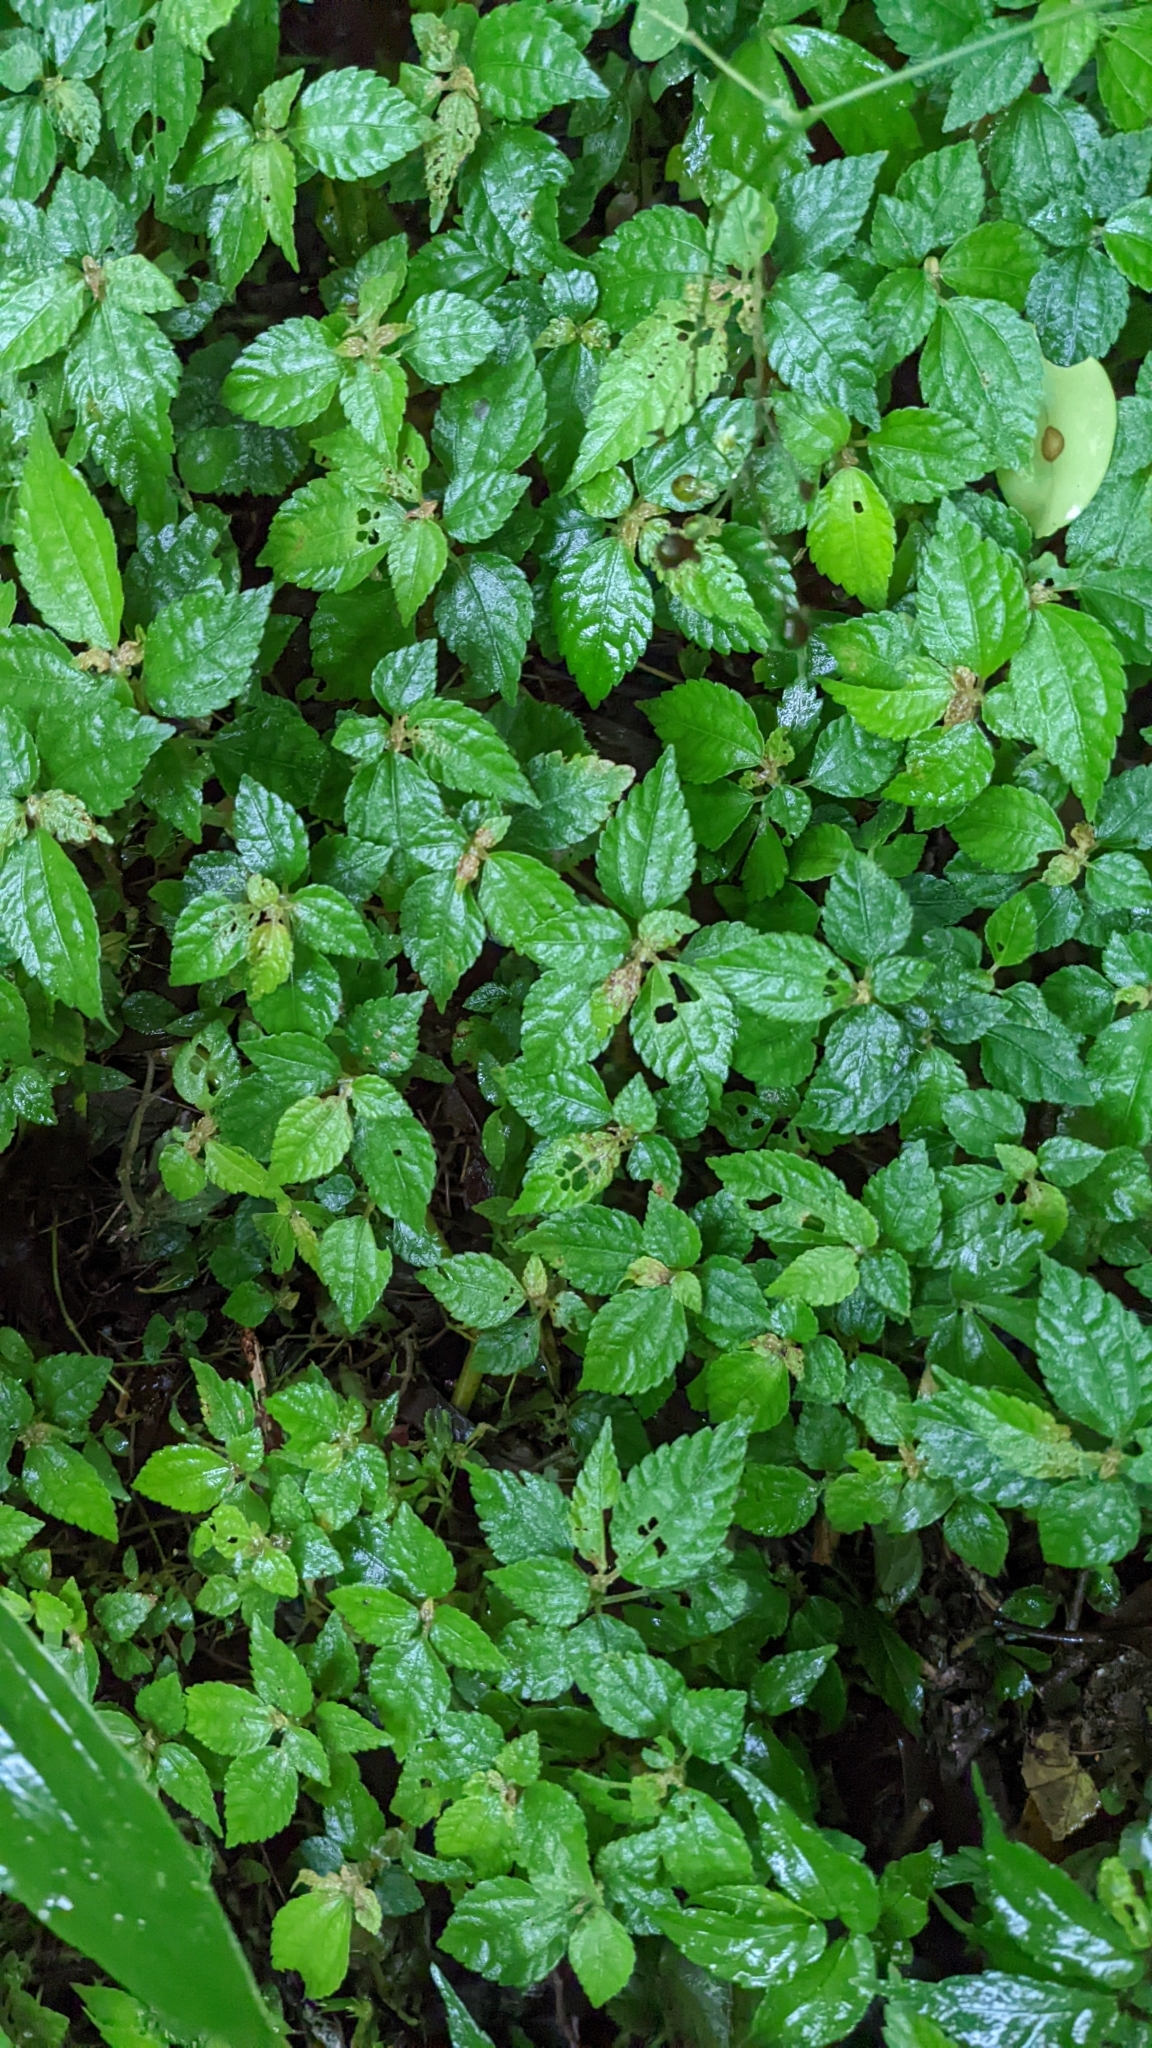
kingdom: Plantae
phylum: Tracheophyta
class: Magnoliopsida
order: Rosales
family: Urticaceae
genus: Pilea
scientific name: Pilea aquarum
